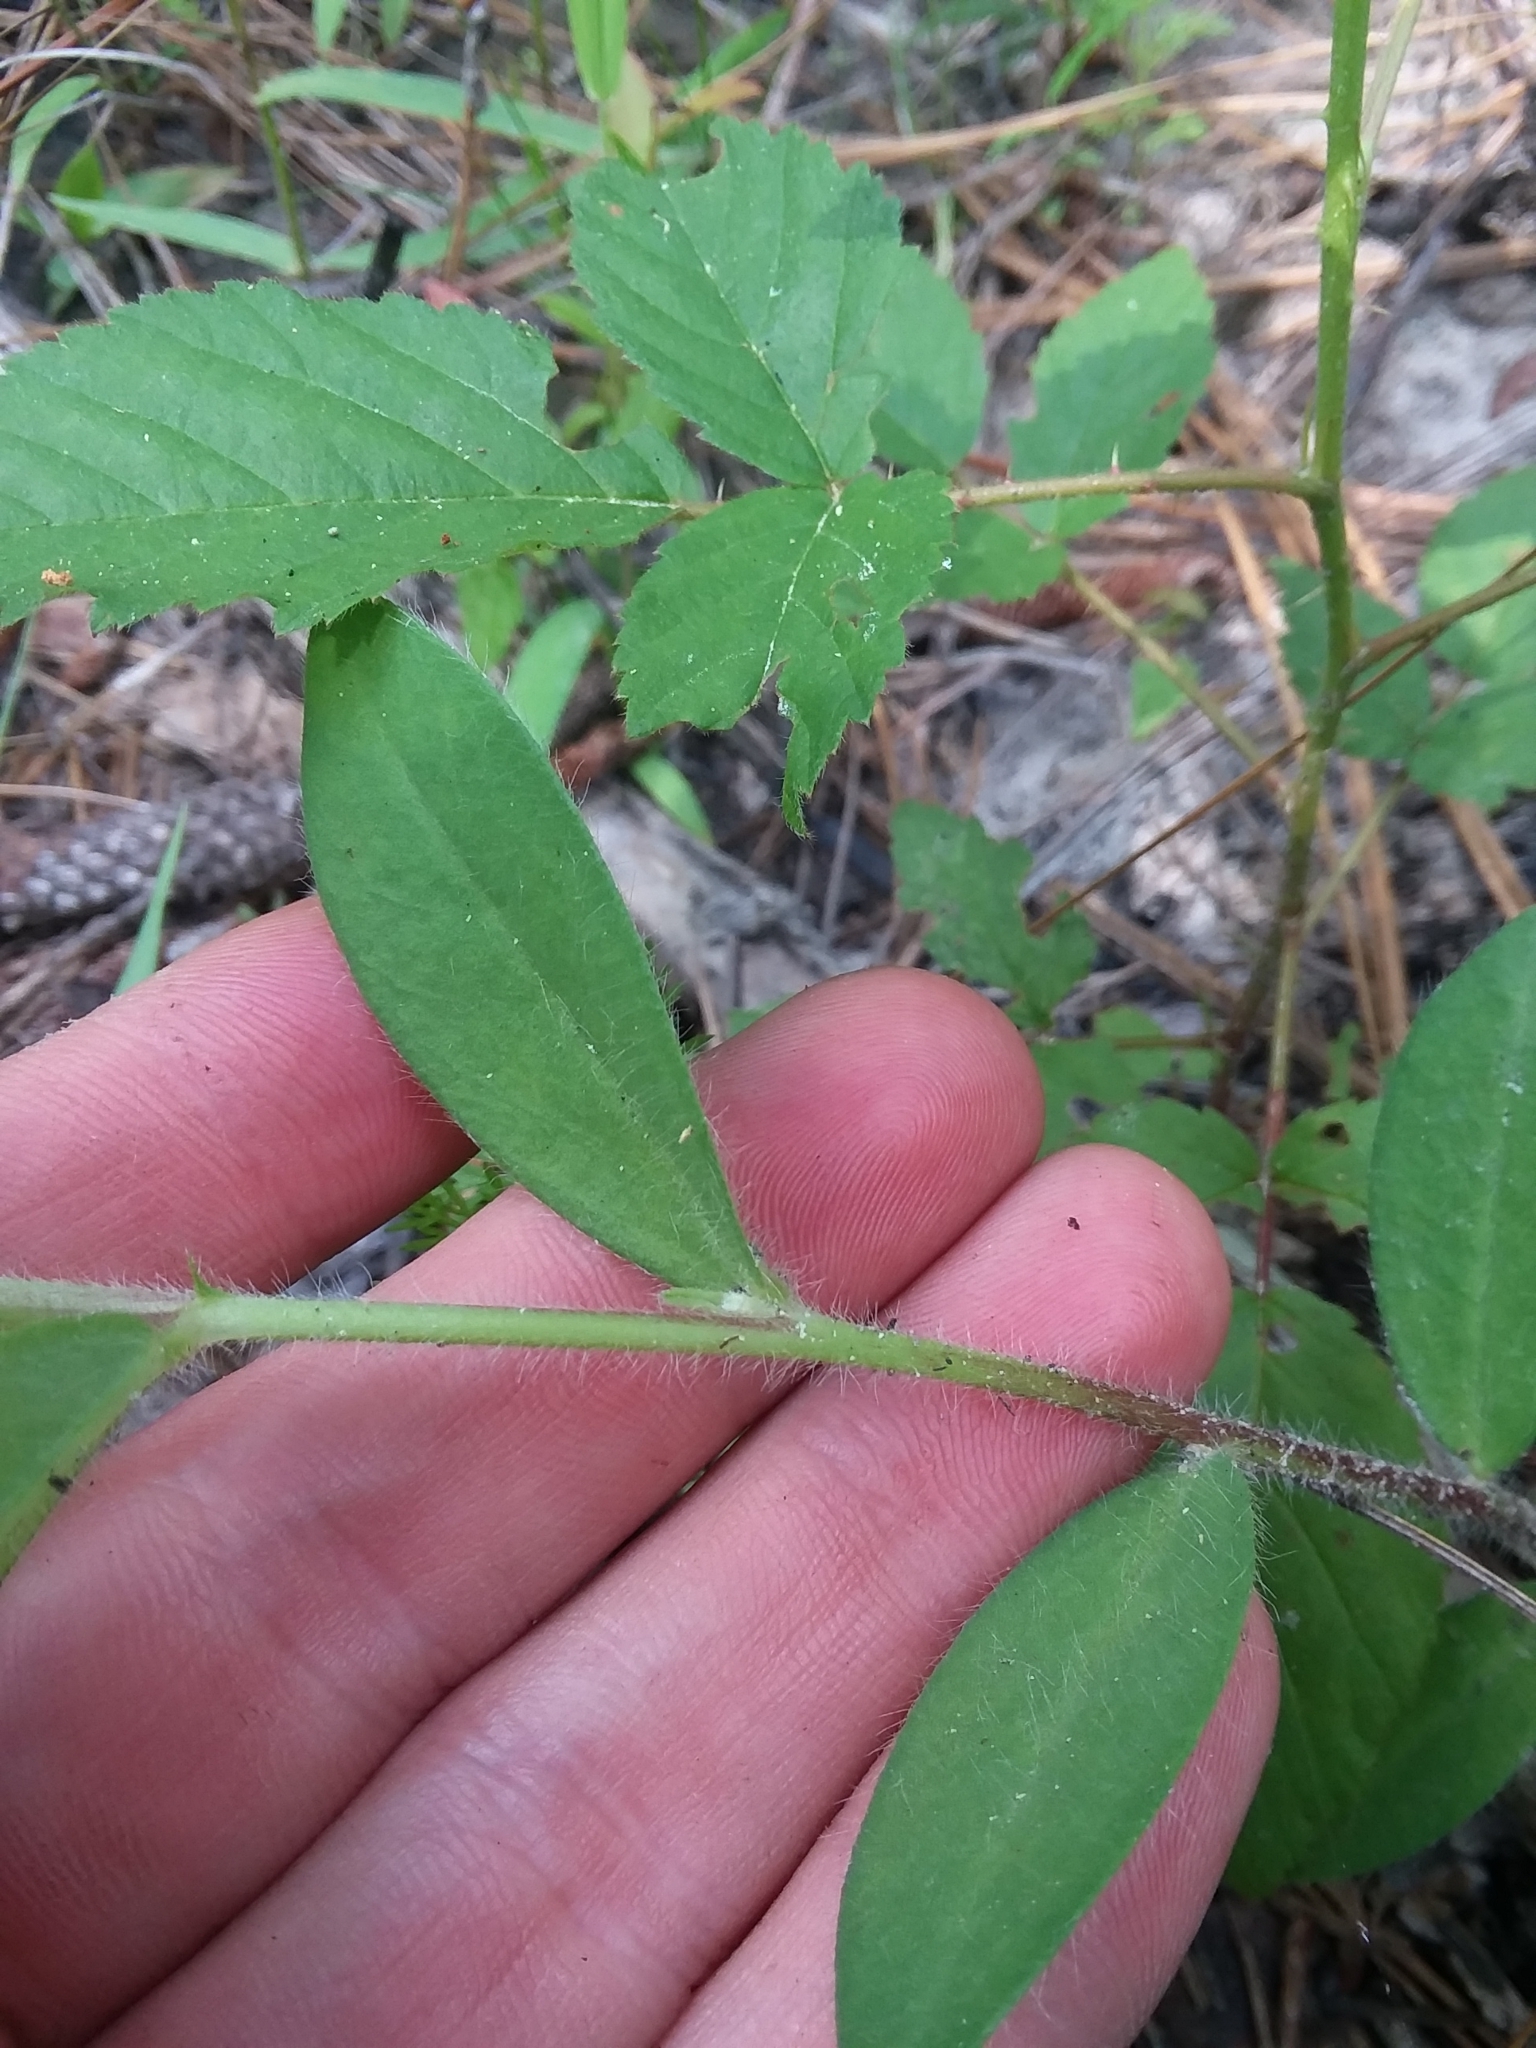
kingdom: Plantae
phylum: Tracheophyta
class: Magnoliopsida
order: Fabales
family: Fabaceae
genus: Crotalaria
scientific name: Crotalaria sagittalis
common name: Arrowhead rattlebox
